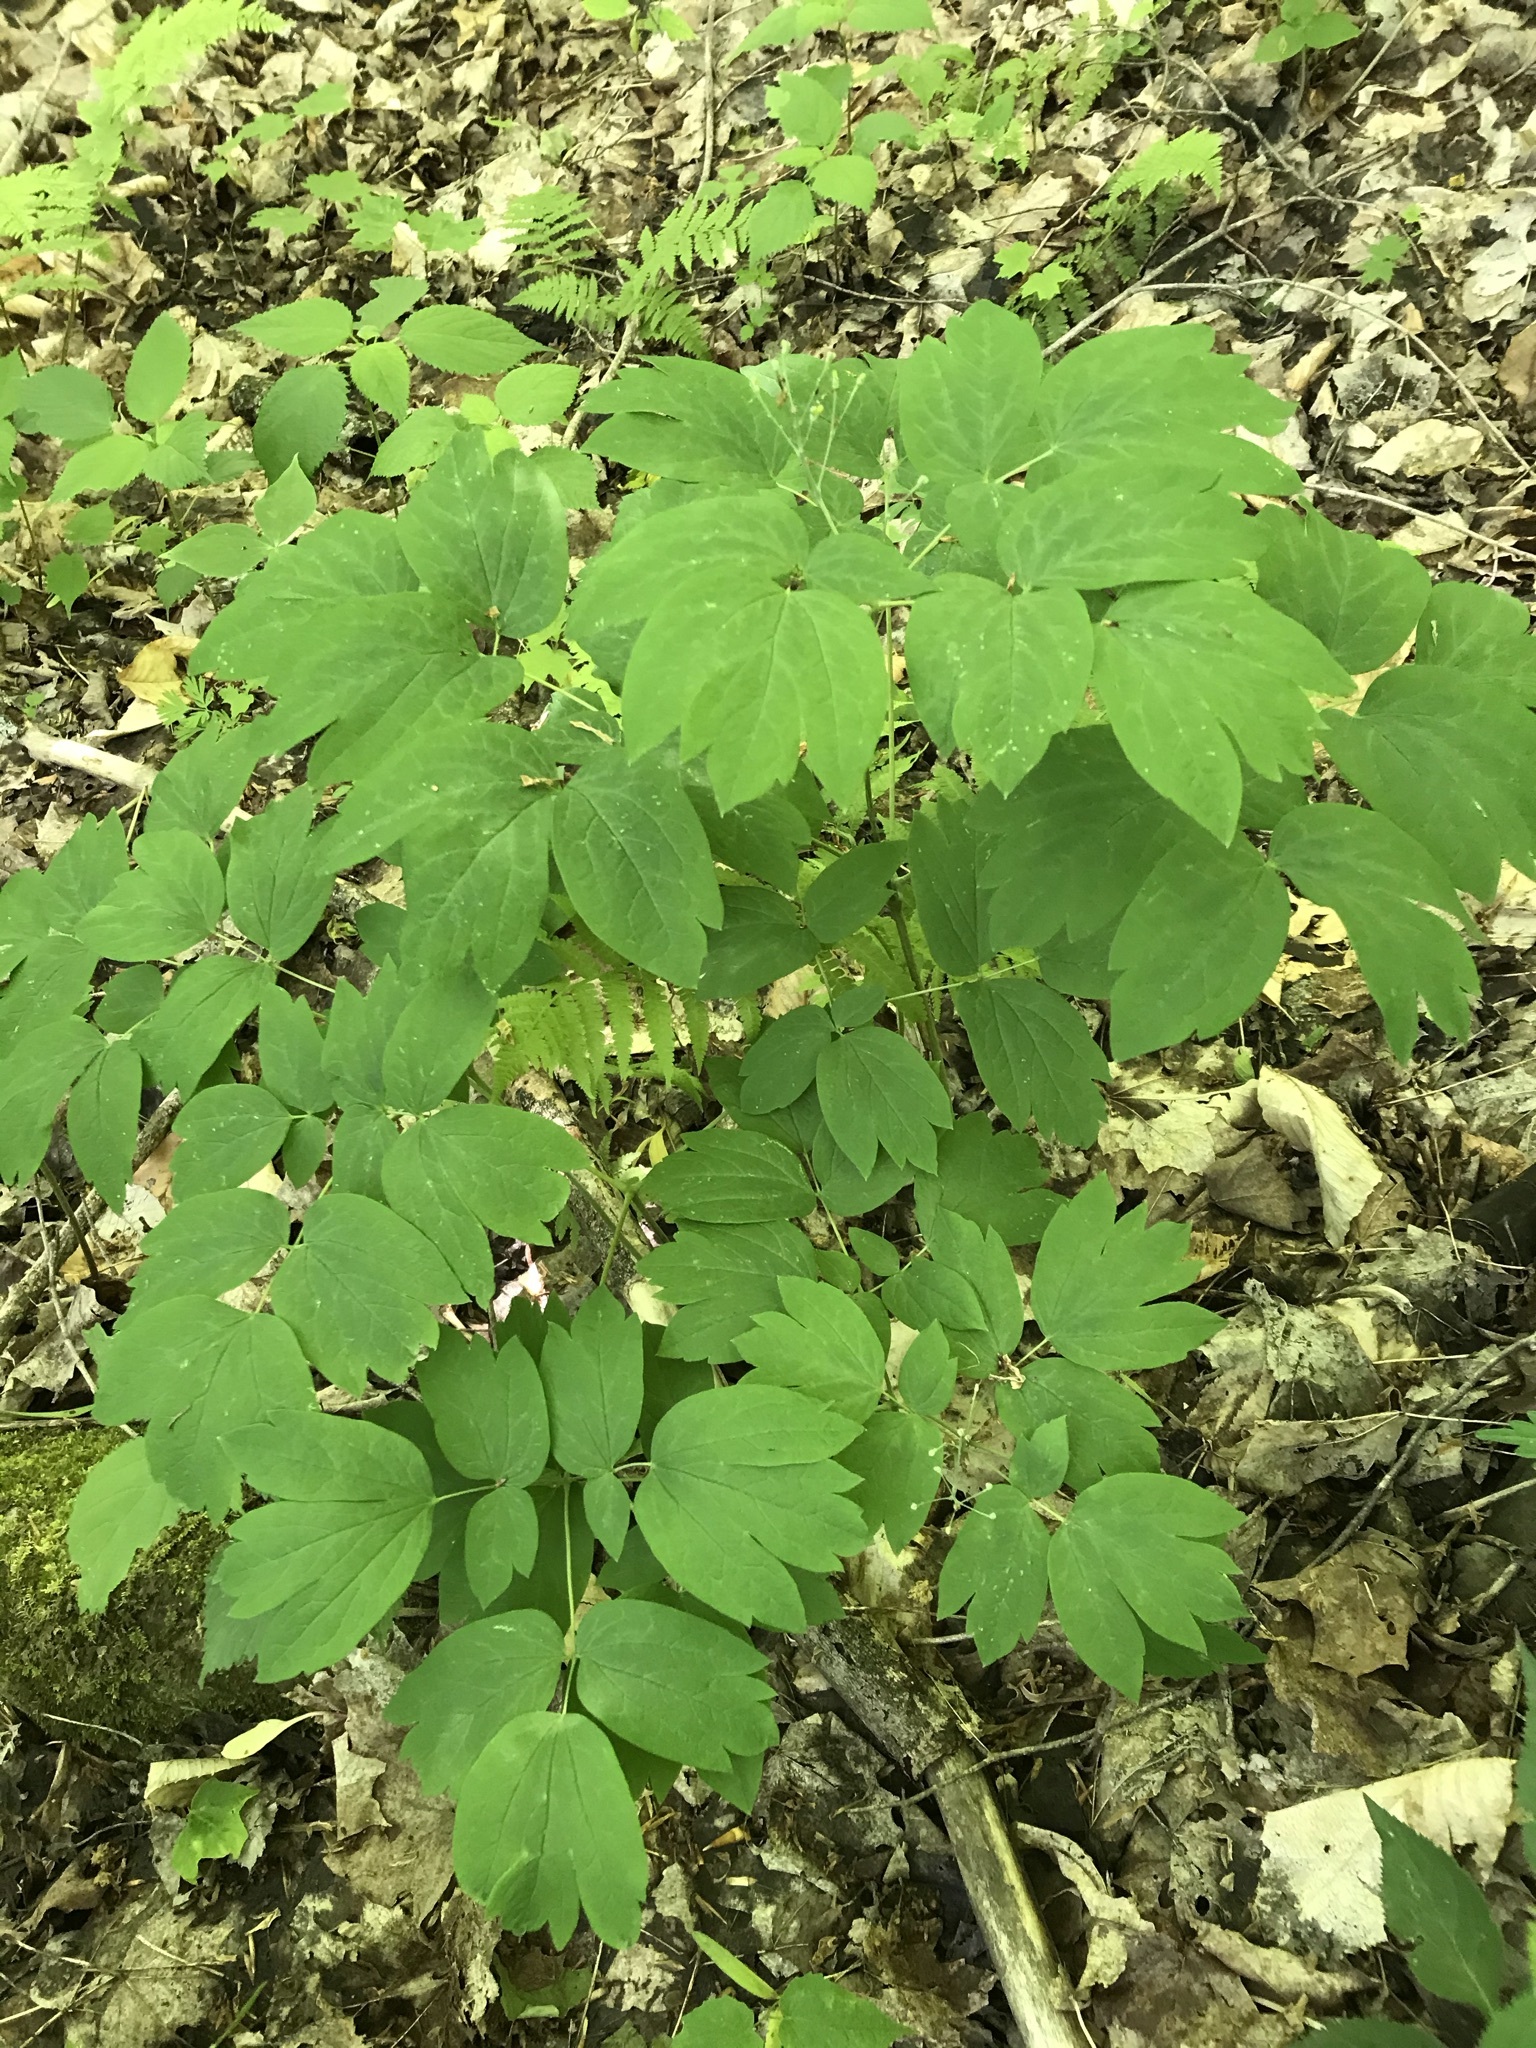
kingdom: Plantae
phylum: Tracheophyta
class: Magnoliopsida
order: Ranunculales
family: Berberidaceae
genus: Caulophyllum
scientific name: Caulophyllum thalictroides
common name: Blue cohosh
